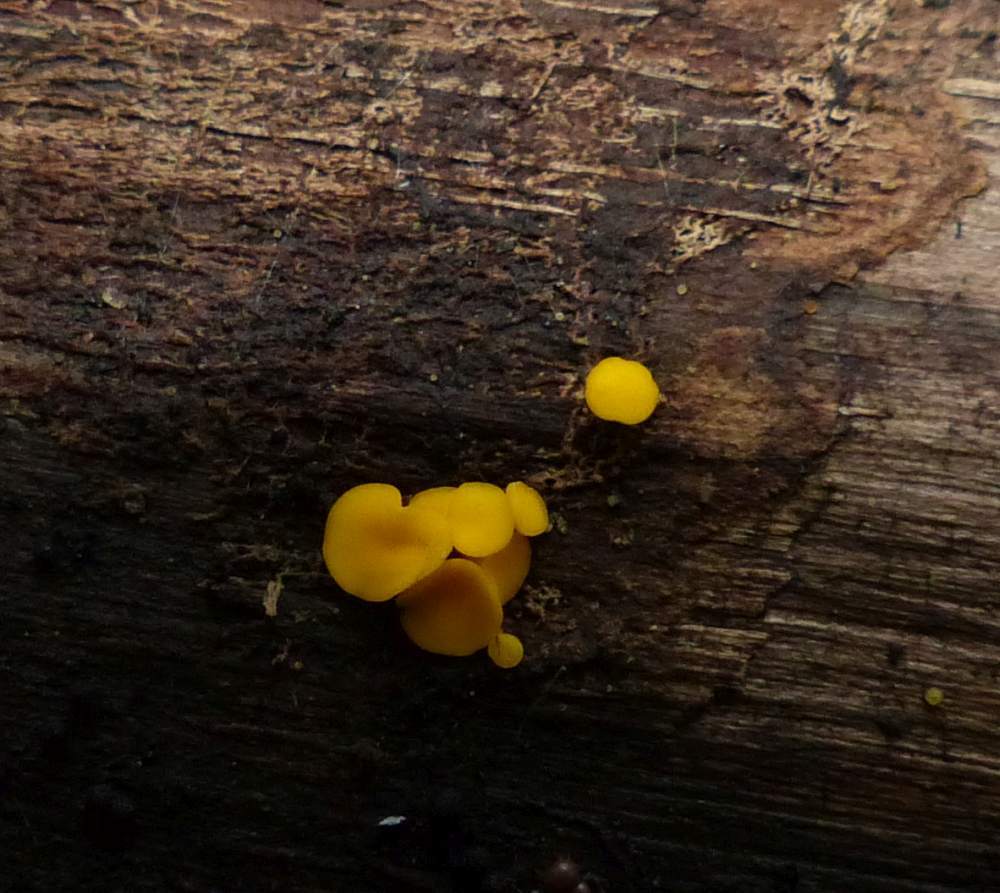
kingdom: Fungi
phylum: Ascomycota
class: Leotiomycetes
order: Helotiales
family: Pezizellaceae
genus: Calycina
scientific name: Calycina citrina
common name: Yellow fairy cups
